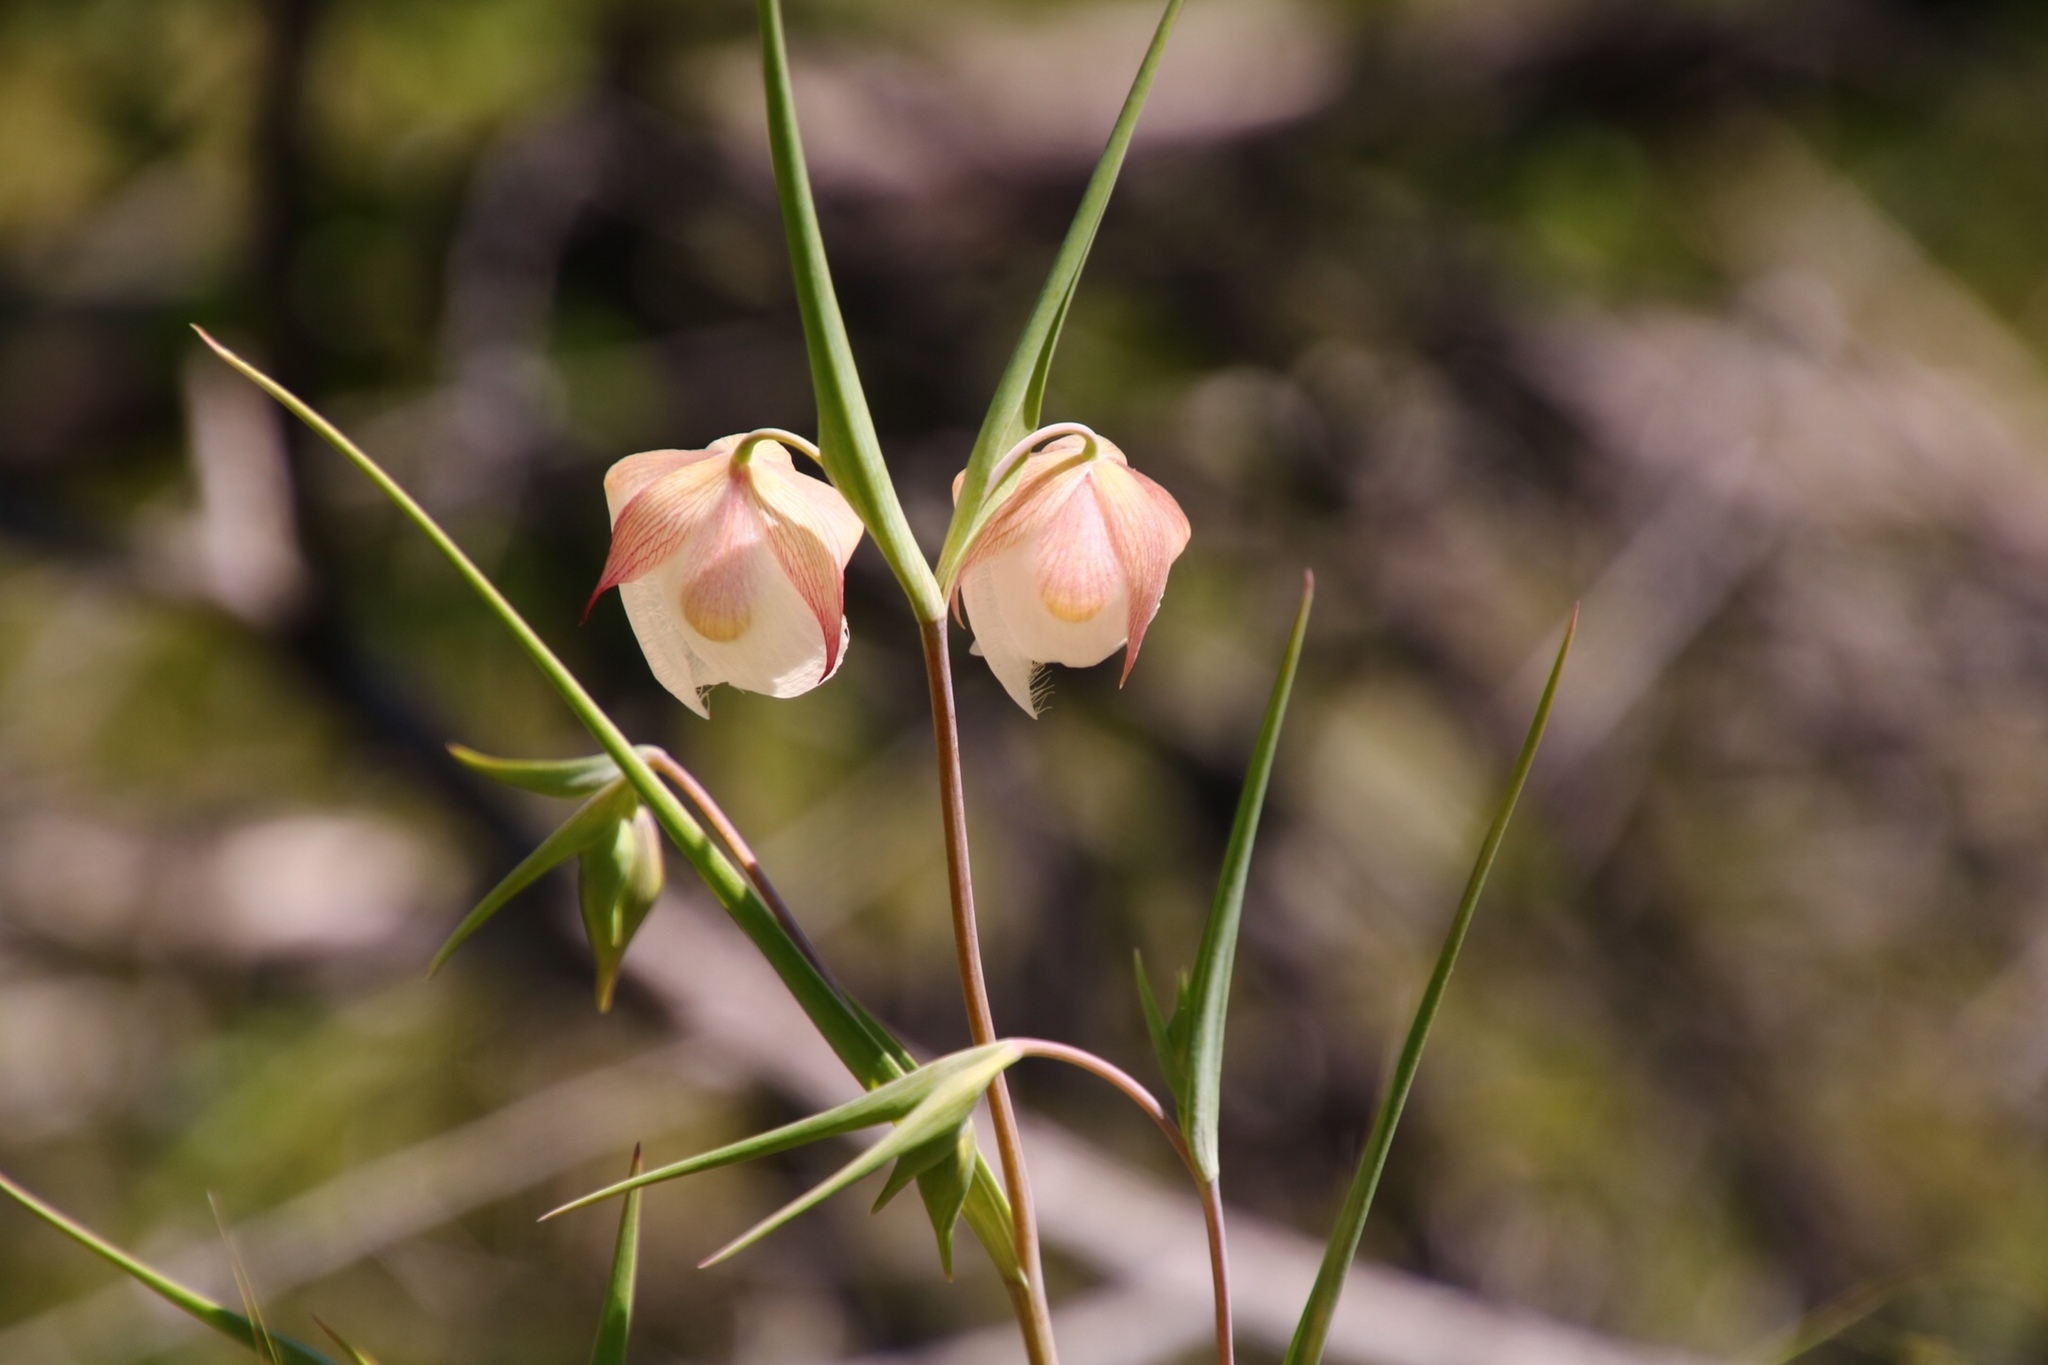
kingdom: Plantae
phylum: Tracheophyta
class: Liliopsida
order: Liliales
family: Liliaceae
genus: Calochortus
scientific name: Calochortus albus
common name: Fairy-lantern
